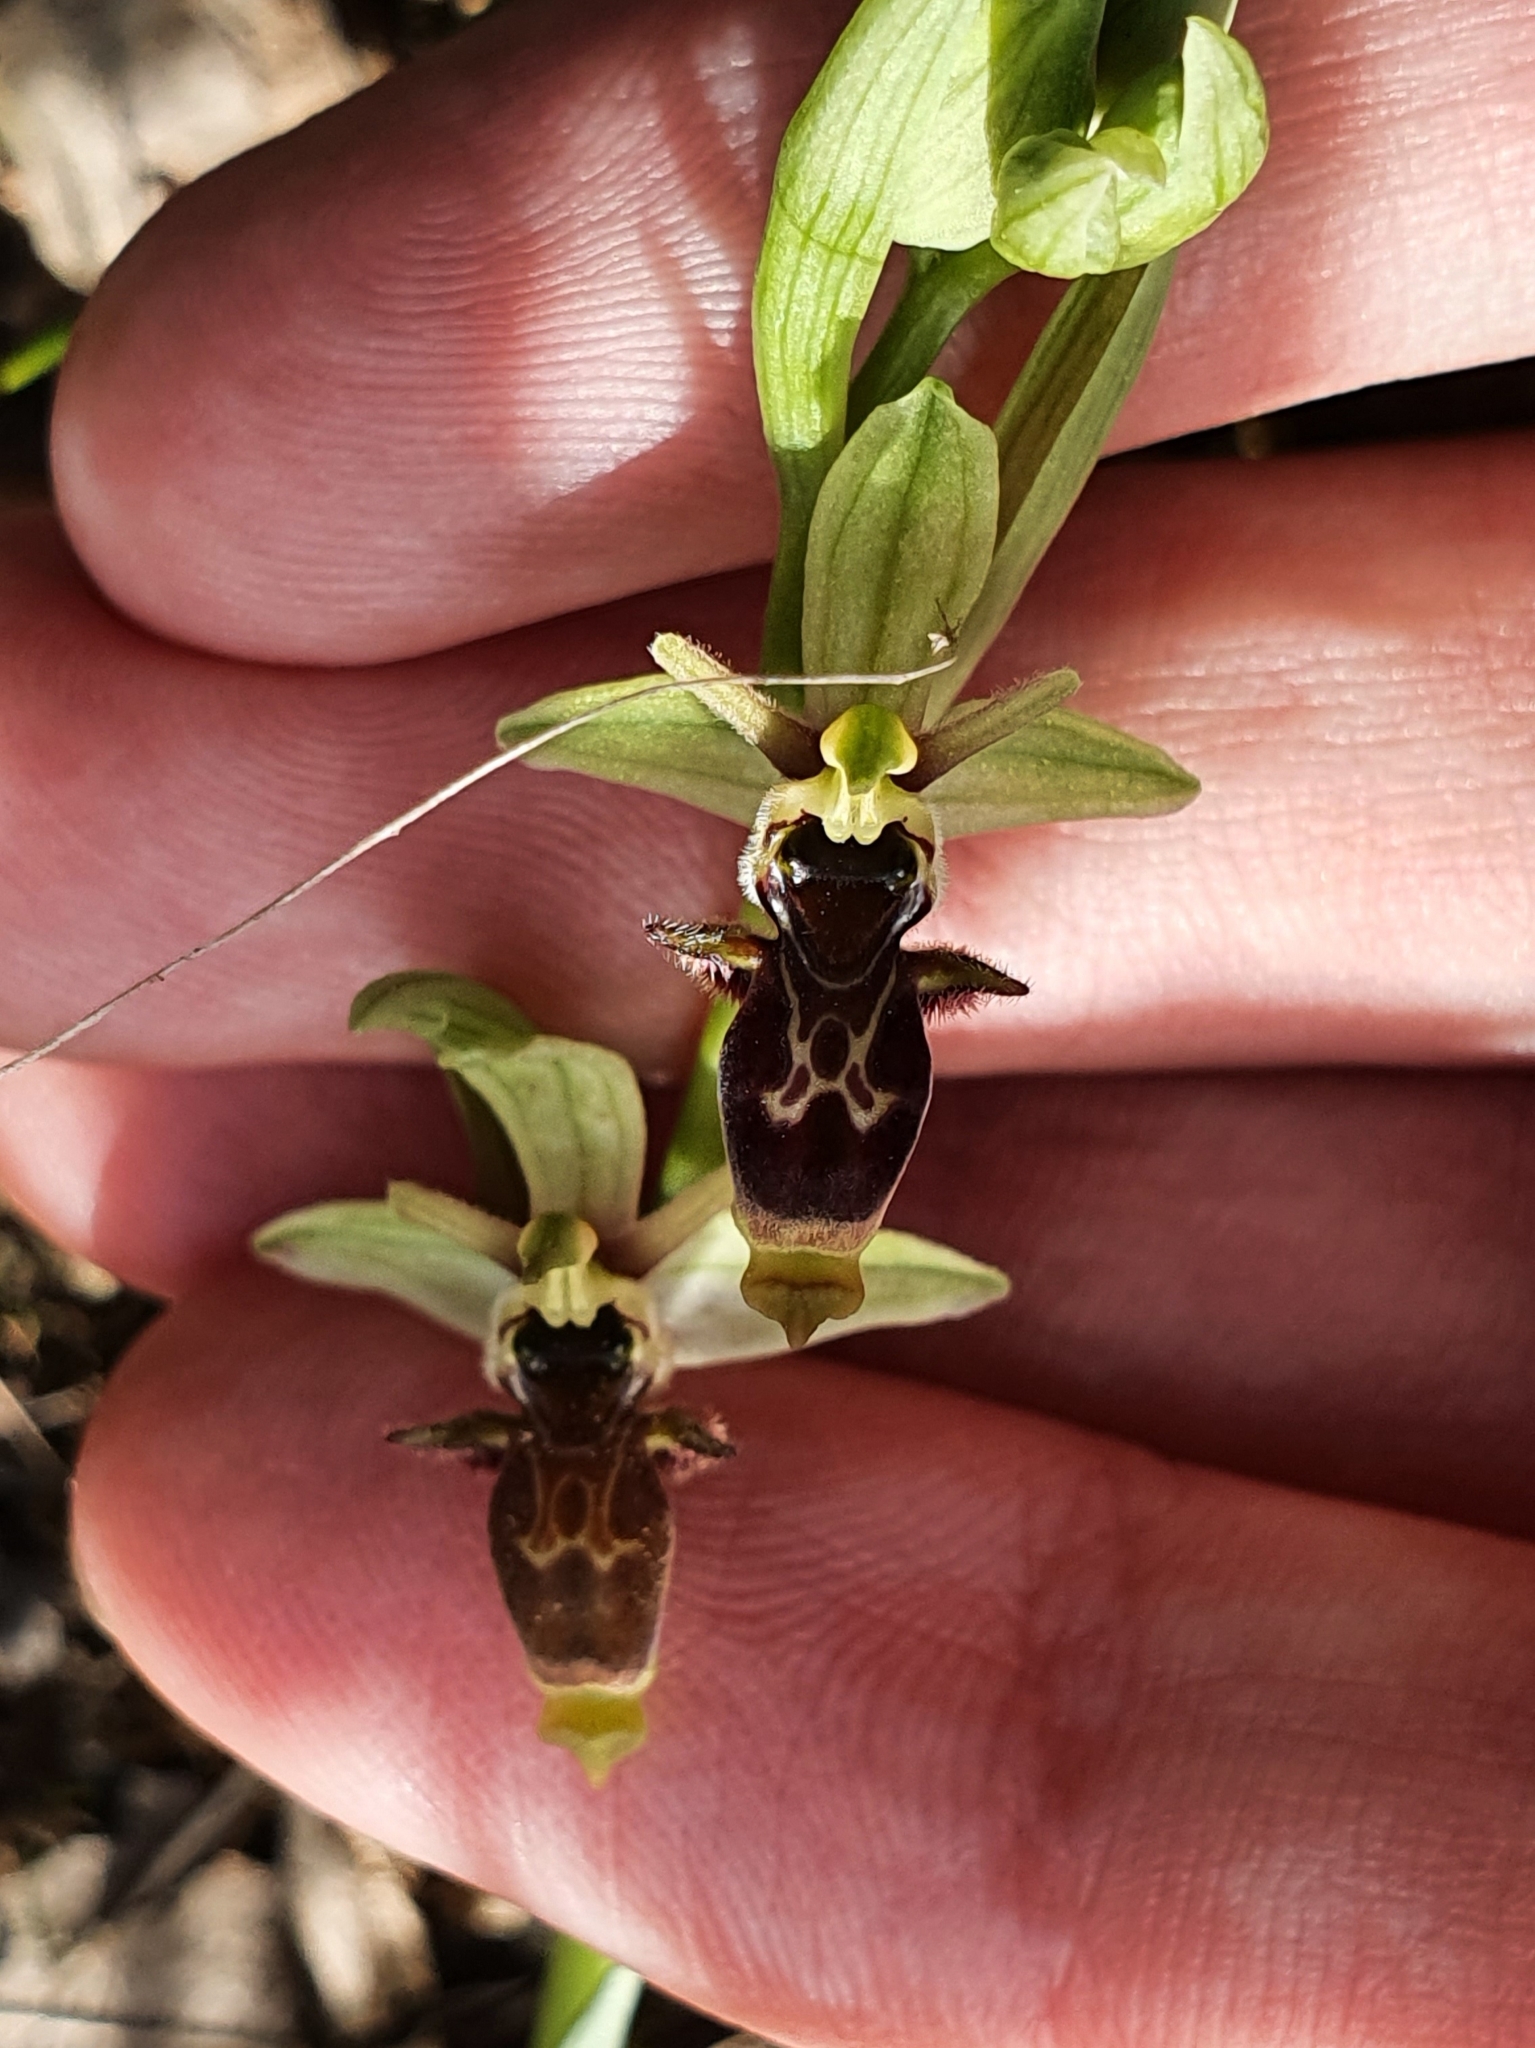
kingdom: Plantae
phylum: Tracheophyta
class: Liliopsida
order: Asparagales
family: Orchidaceae
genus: Ophrys
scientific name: Ophrys scolopax
